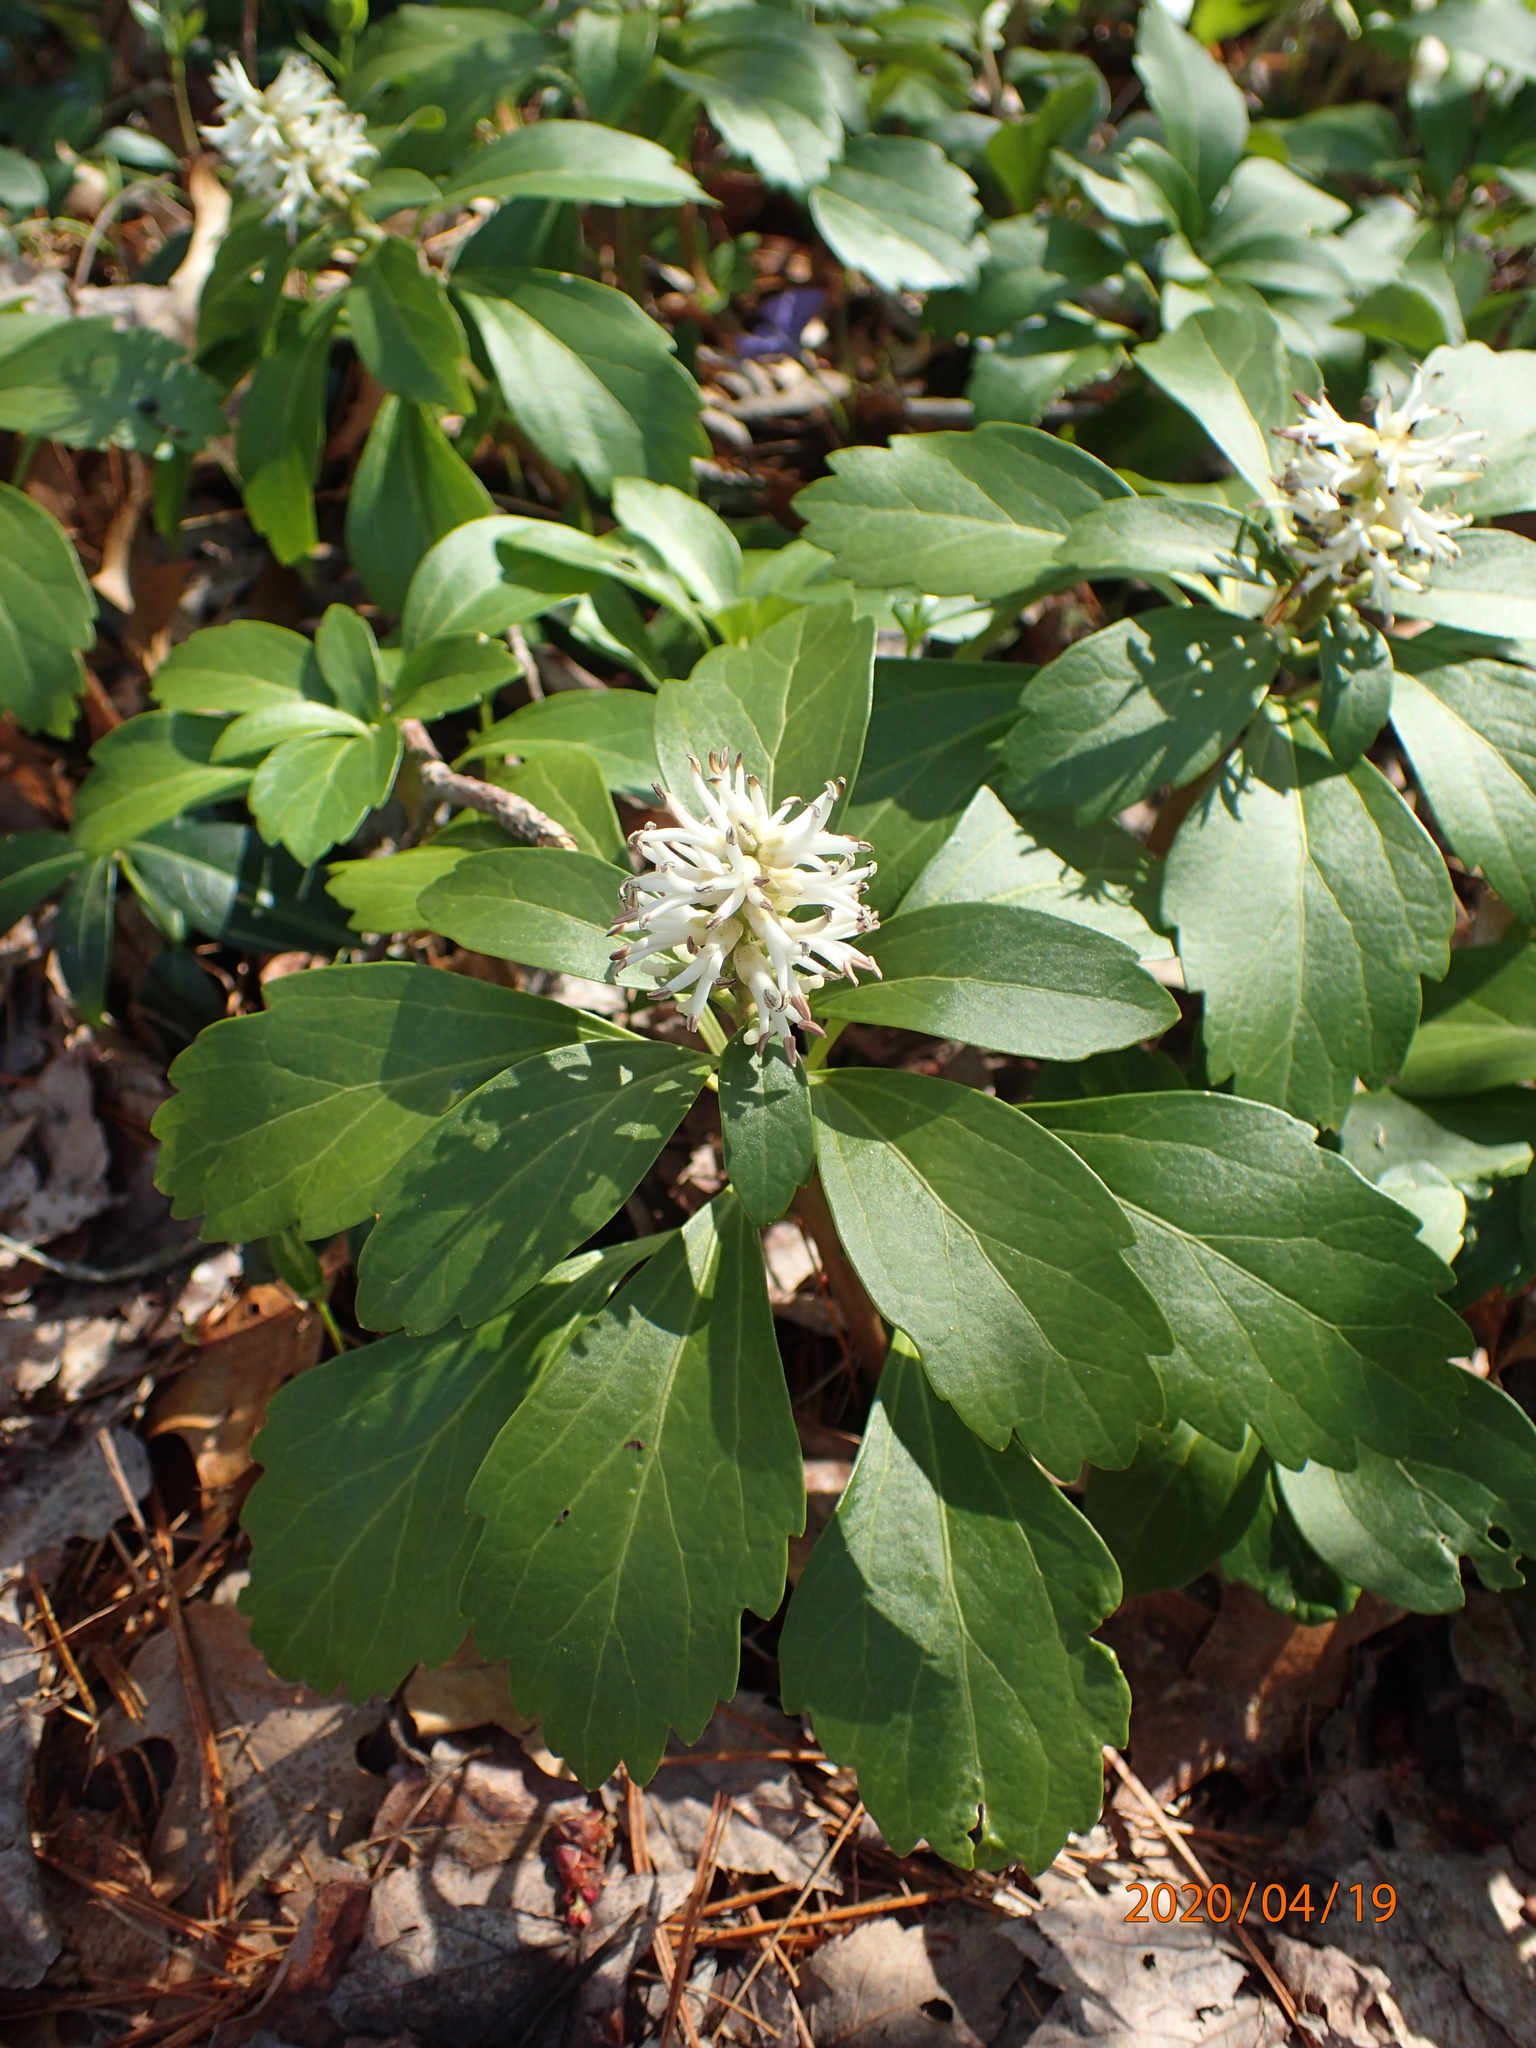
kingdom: Plantae
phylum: Tracheophyta
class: Magnoliopsida
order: Buxales
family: Buxaceae
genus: Pachysandra
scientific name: Pachysandra terminalis
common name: Japanese pachysandra
